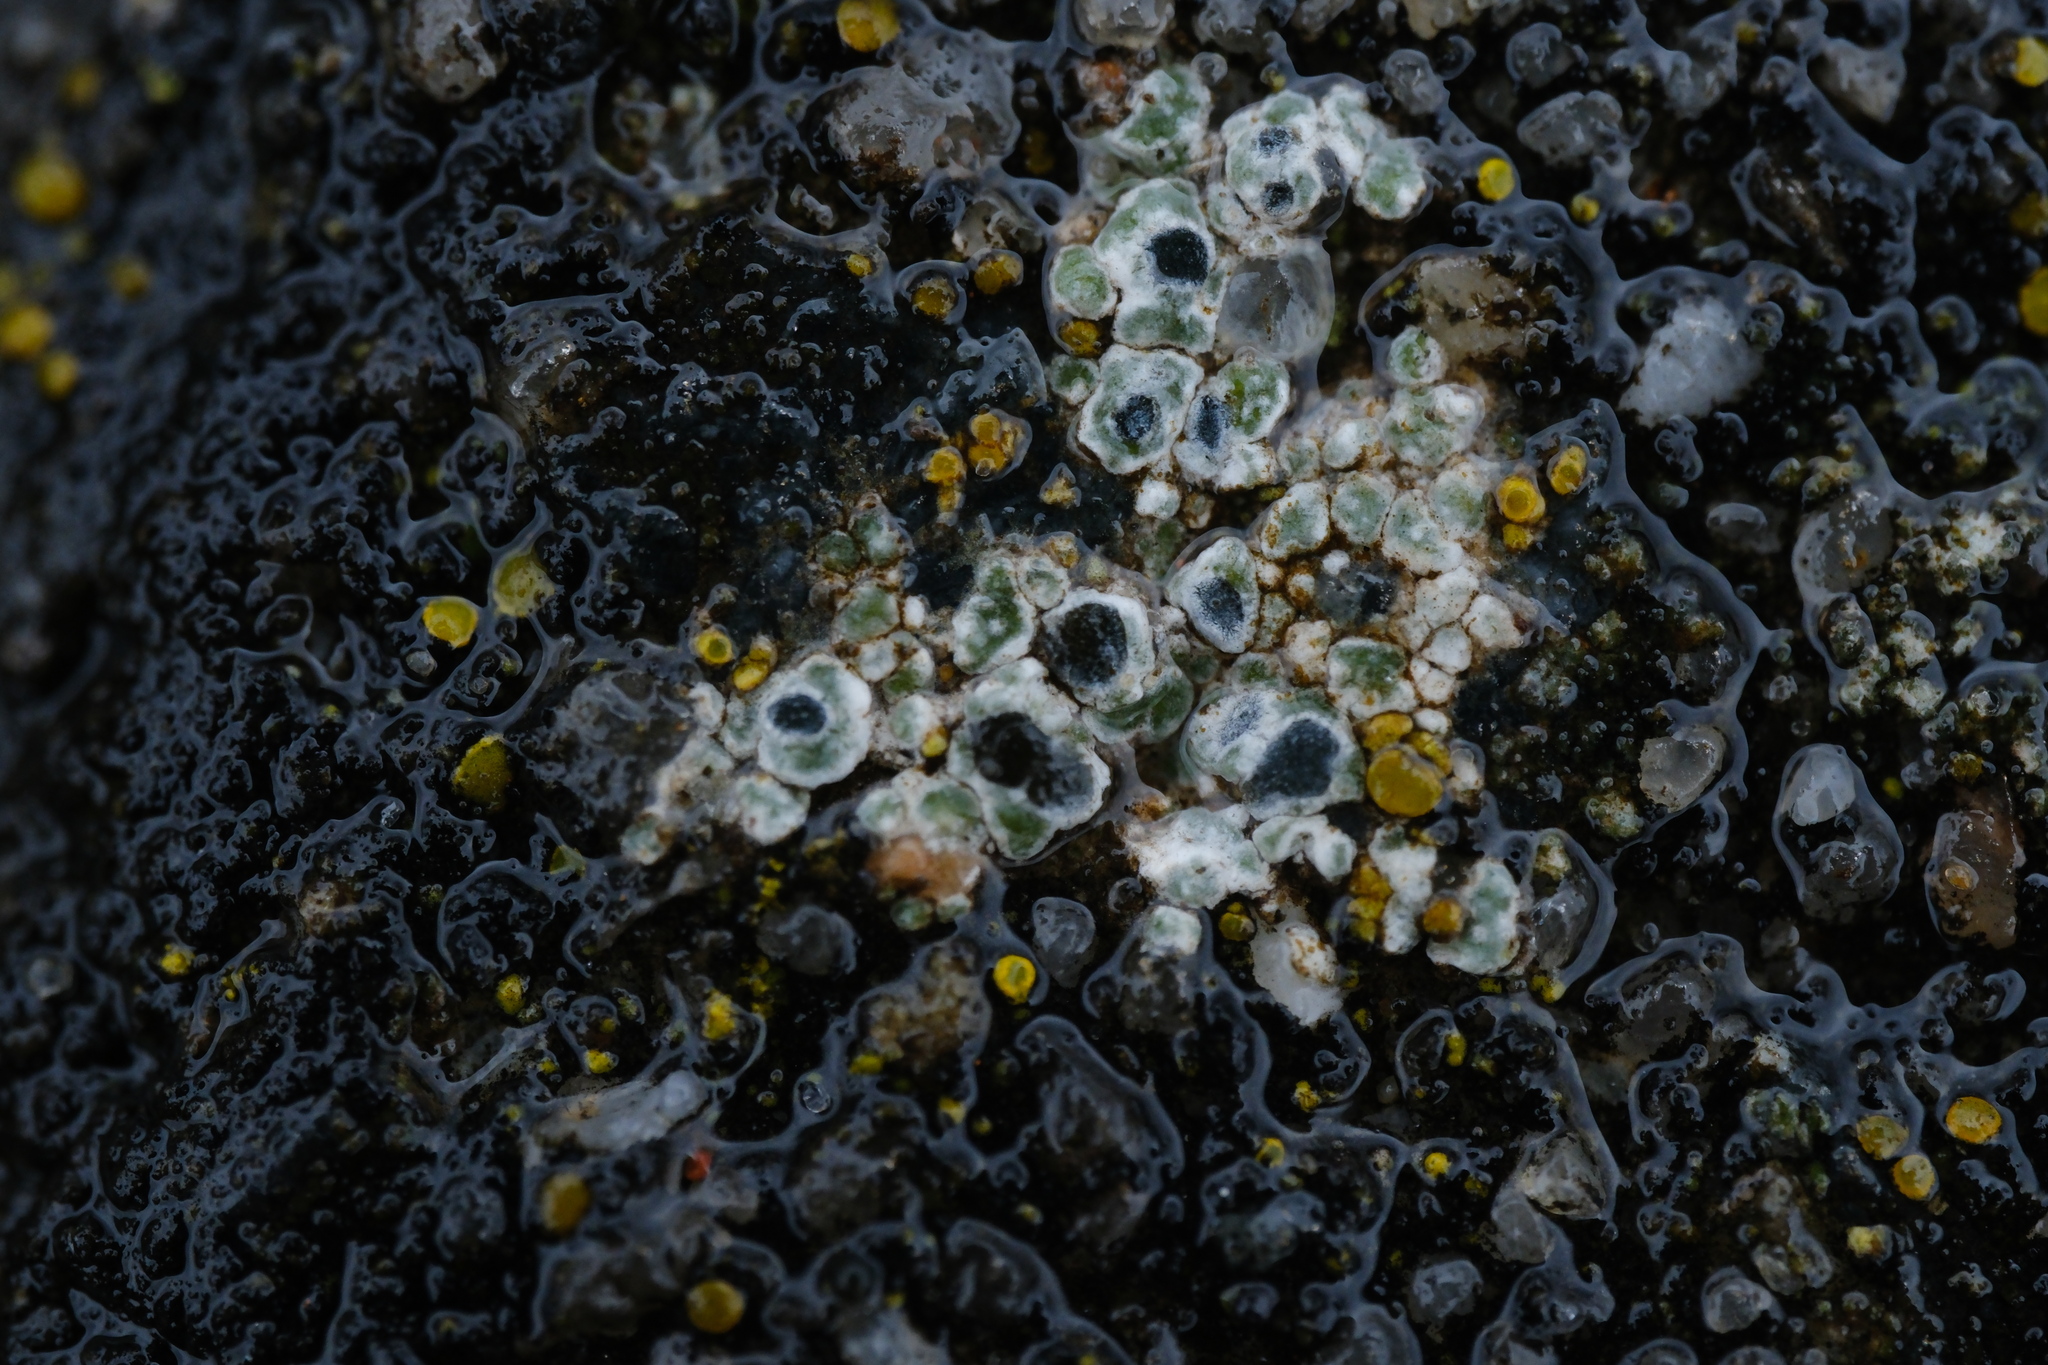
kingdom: Fungi
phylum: Ascomycota
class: Lecanoromycetes
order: Pertusariales
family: Megasporaceae
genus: Circinaria
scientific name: Circinaria contorta
